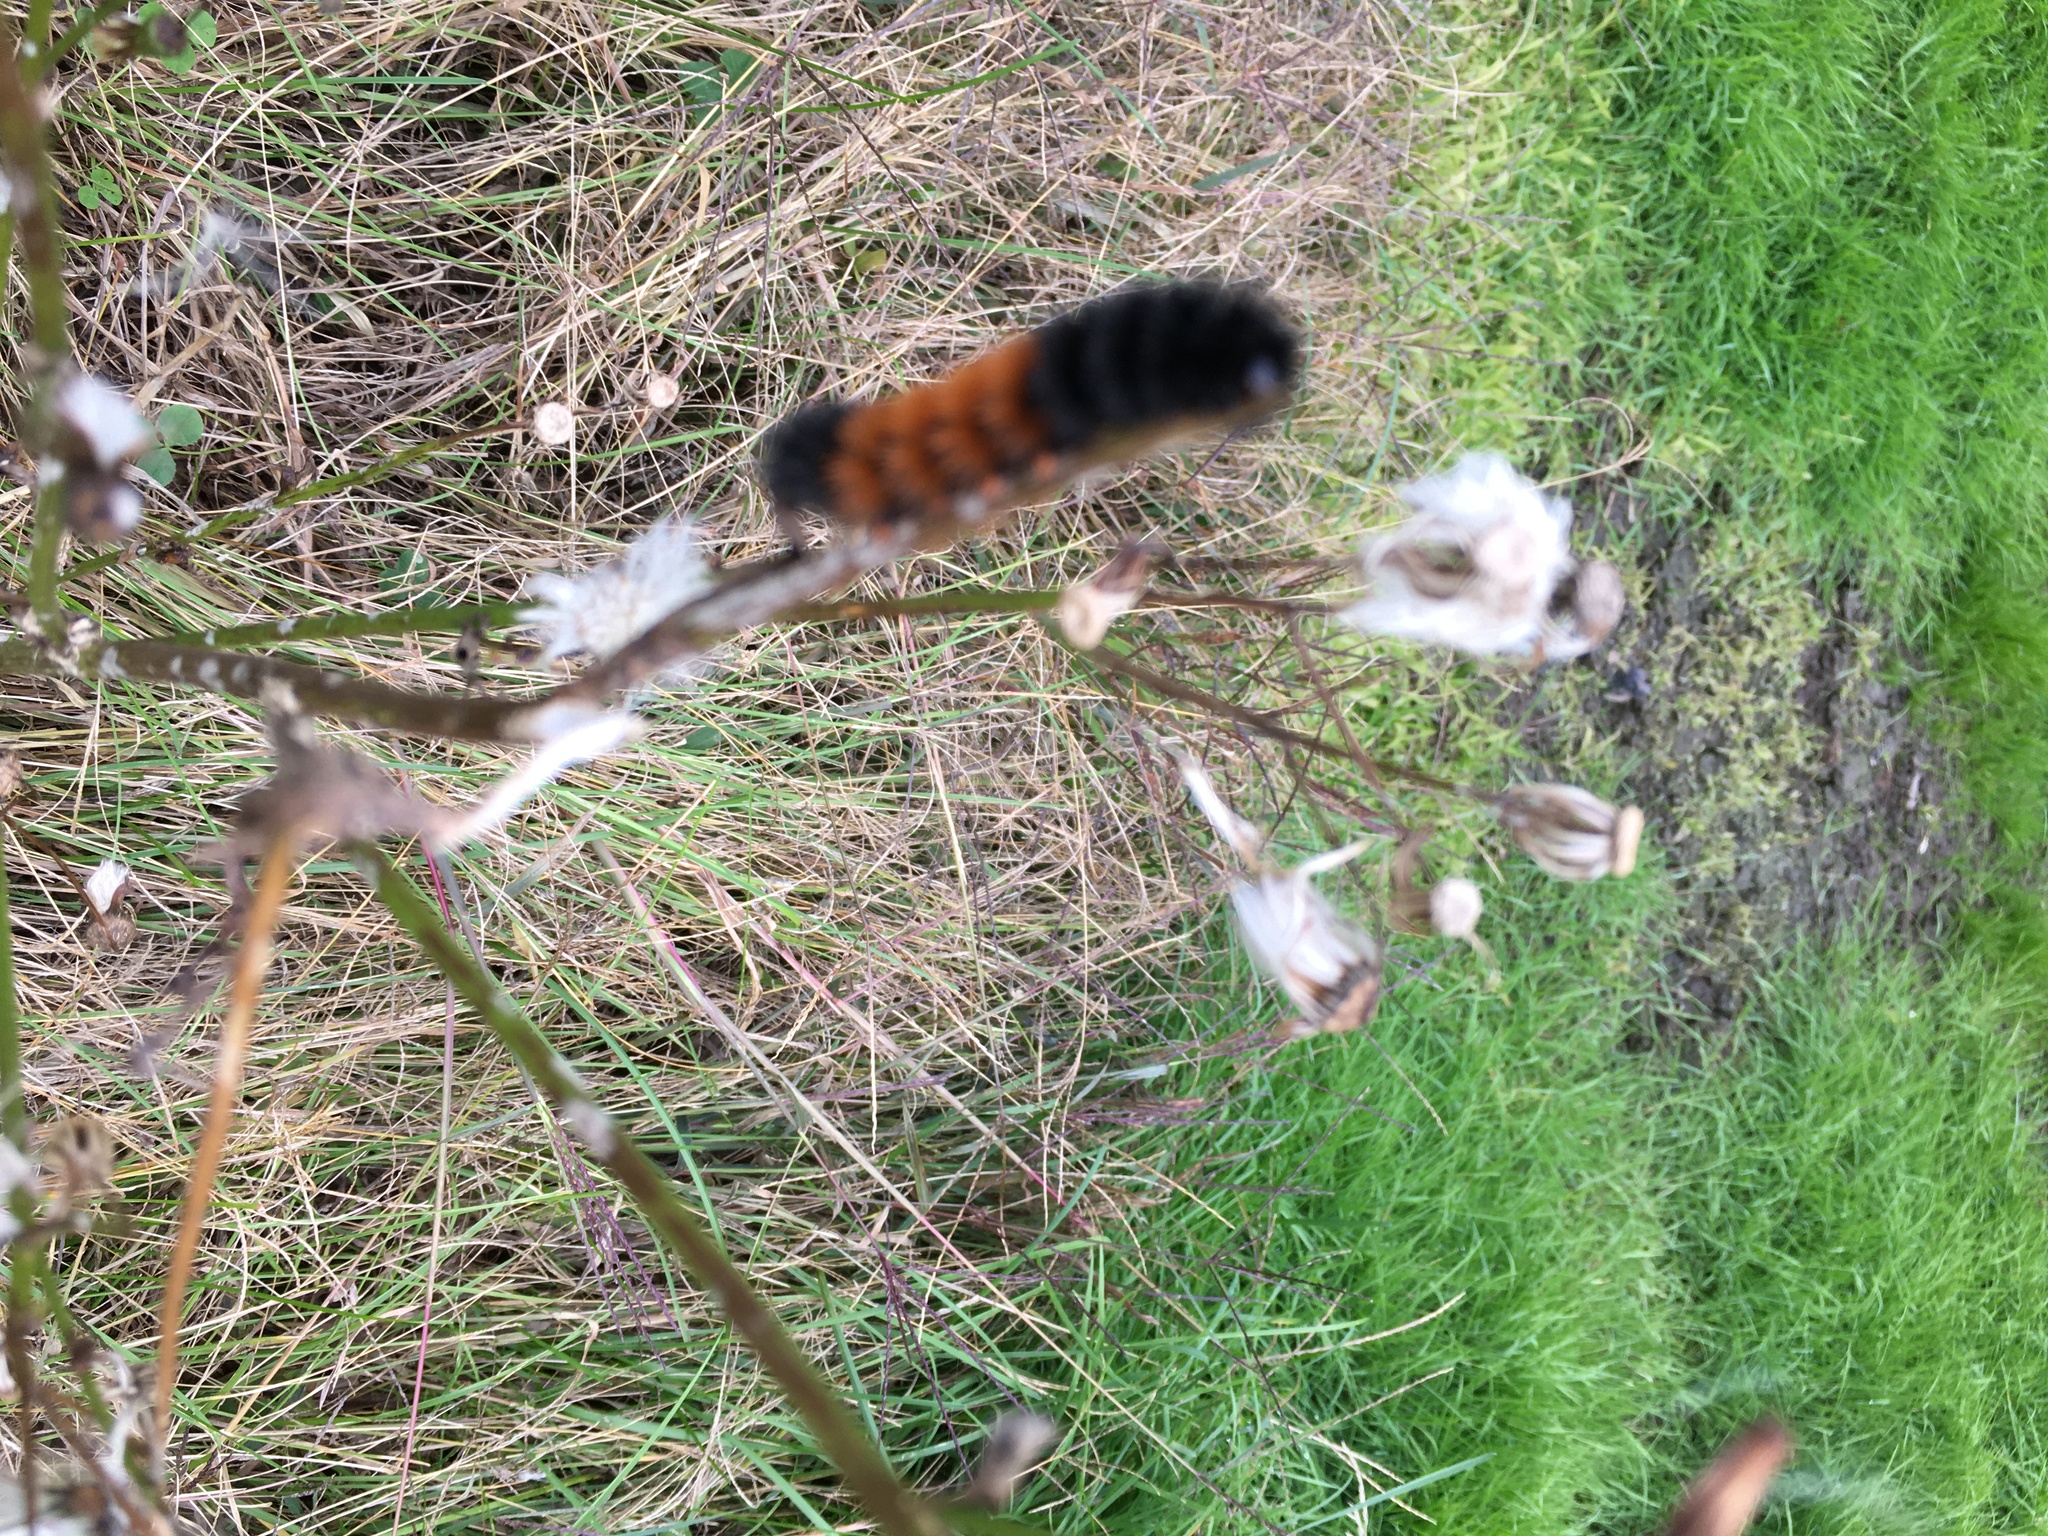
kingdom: Animalia
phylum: Arthropoda
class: Insecta
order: Lepidoptera
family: Erebidae
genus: Pyrrharctia
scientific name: Pyrrharctia isabella
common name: Isabella tiger moth
